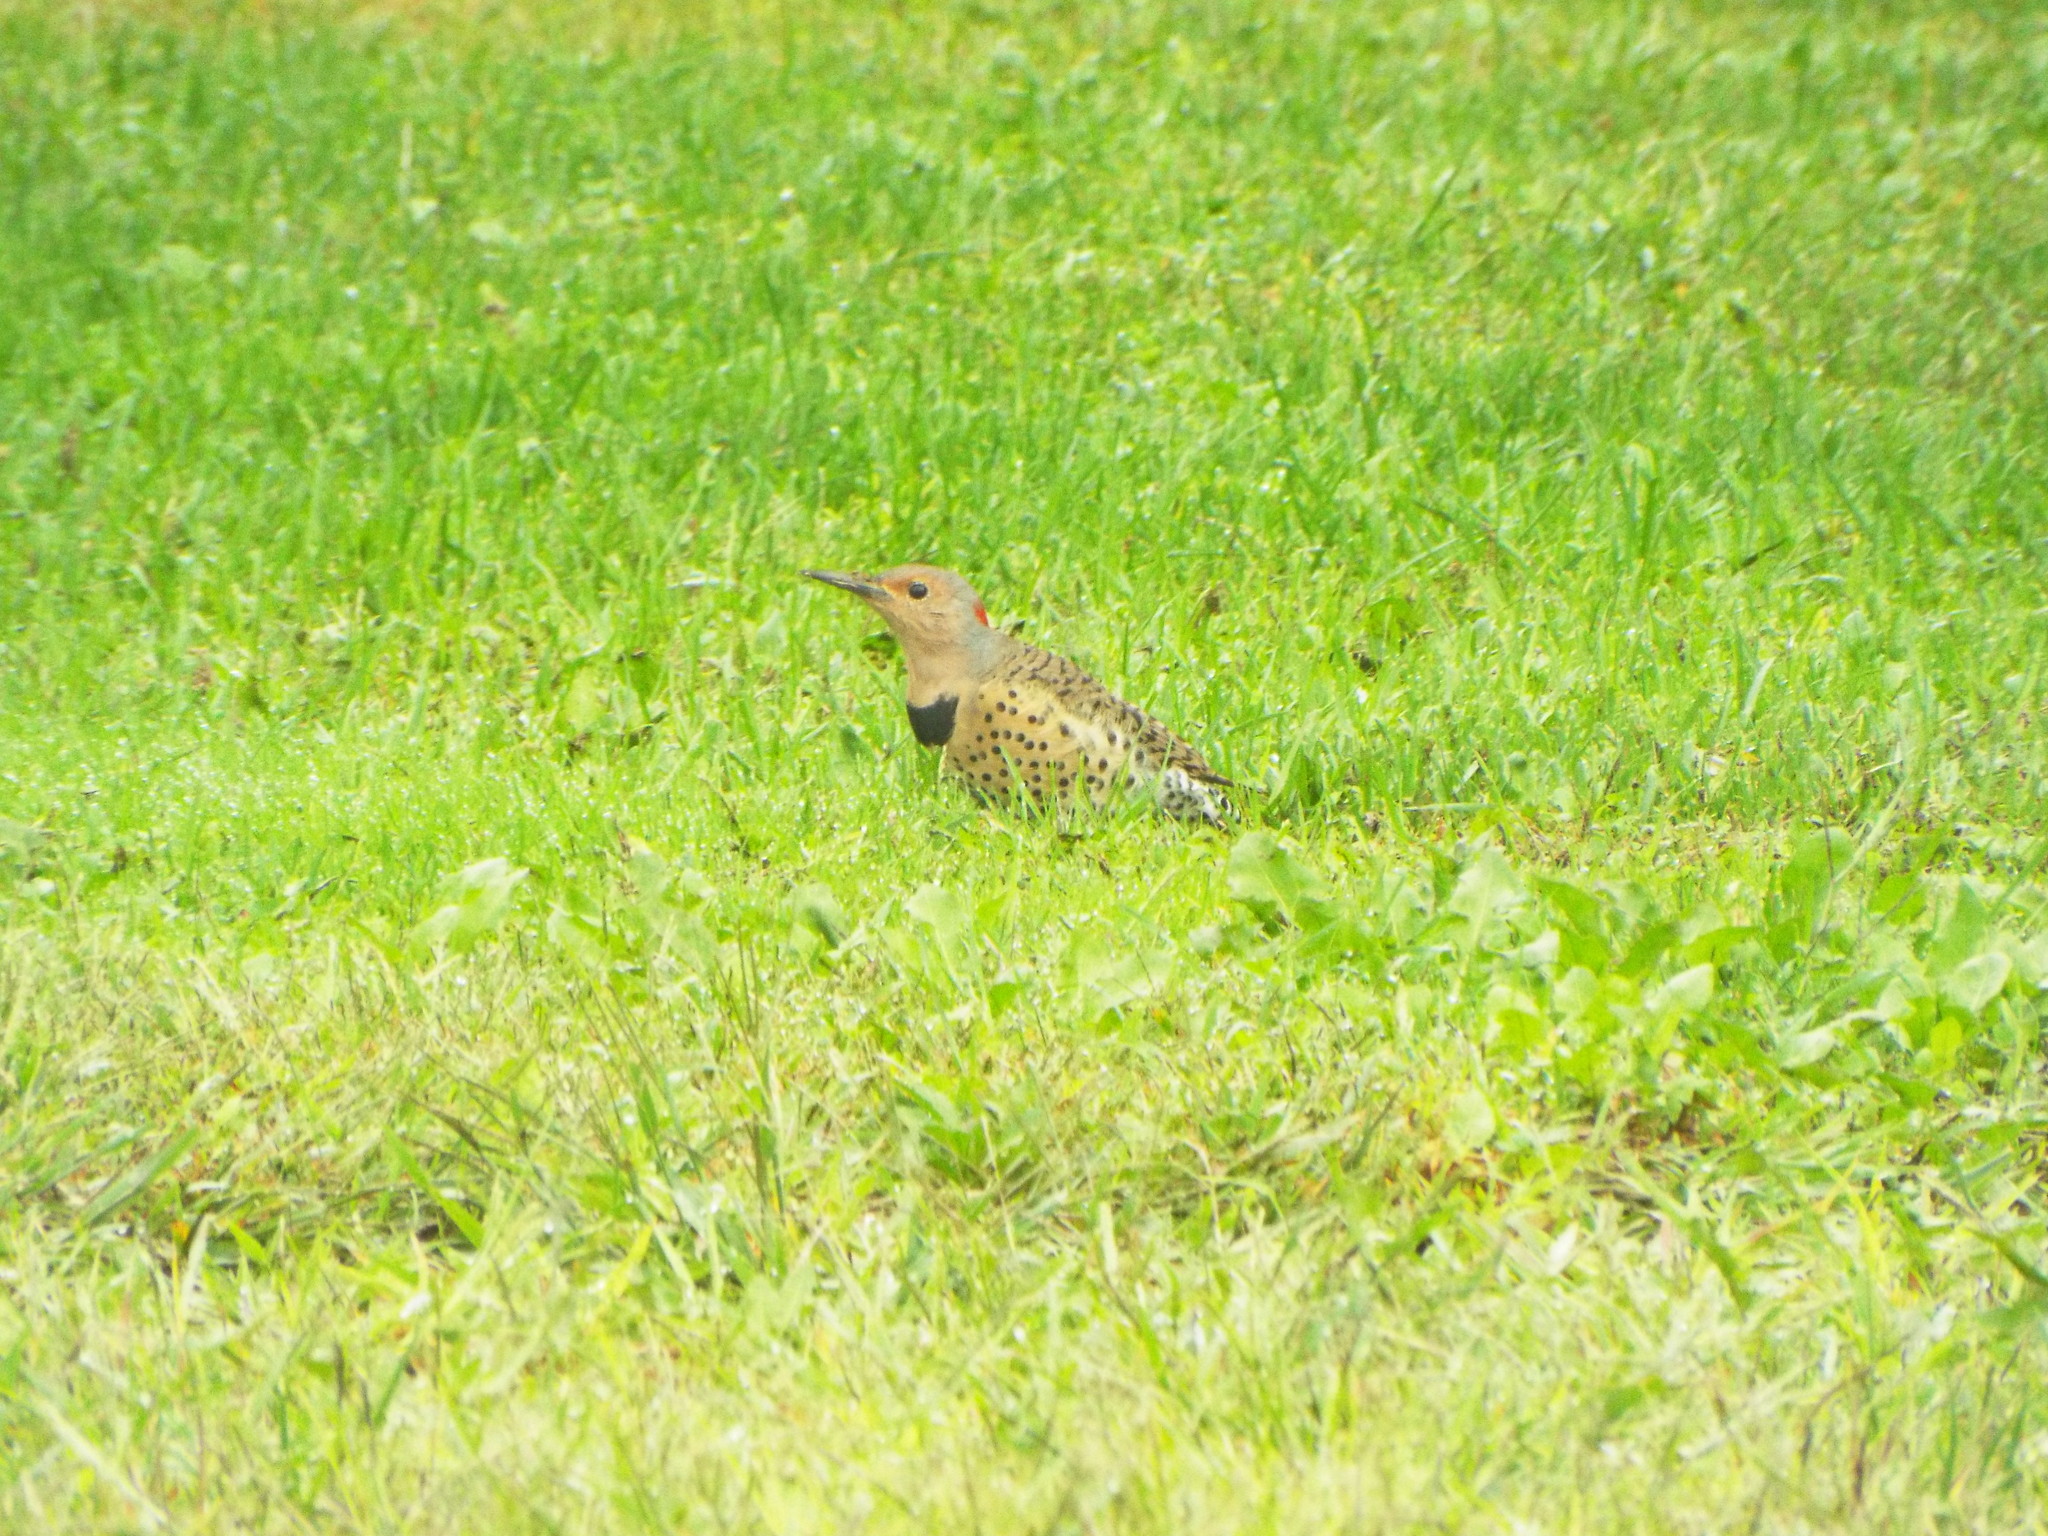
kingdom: Animalia
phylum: Chordata
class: Aves
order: Piciformes
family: Picidae
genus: Colaptes
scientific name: Colaptes auratus
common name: Northern flicker
